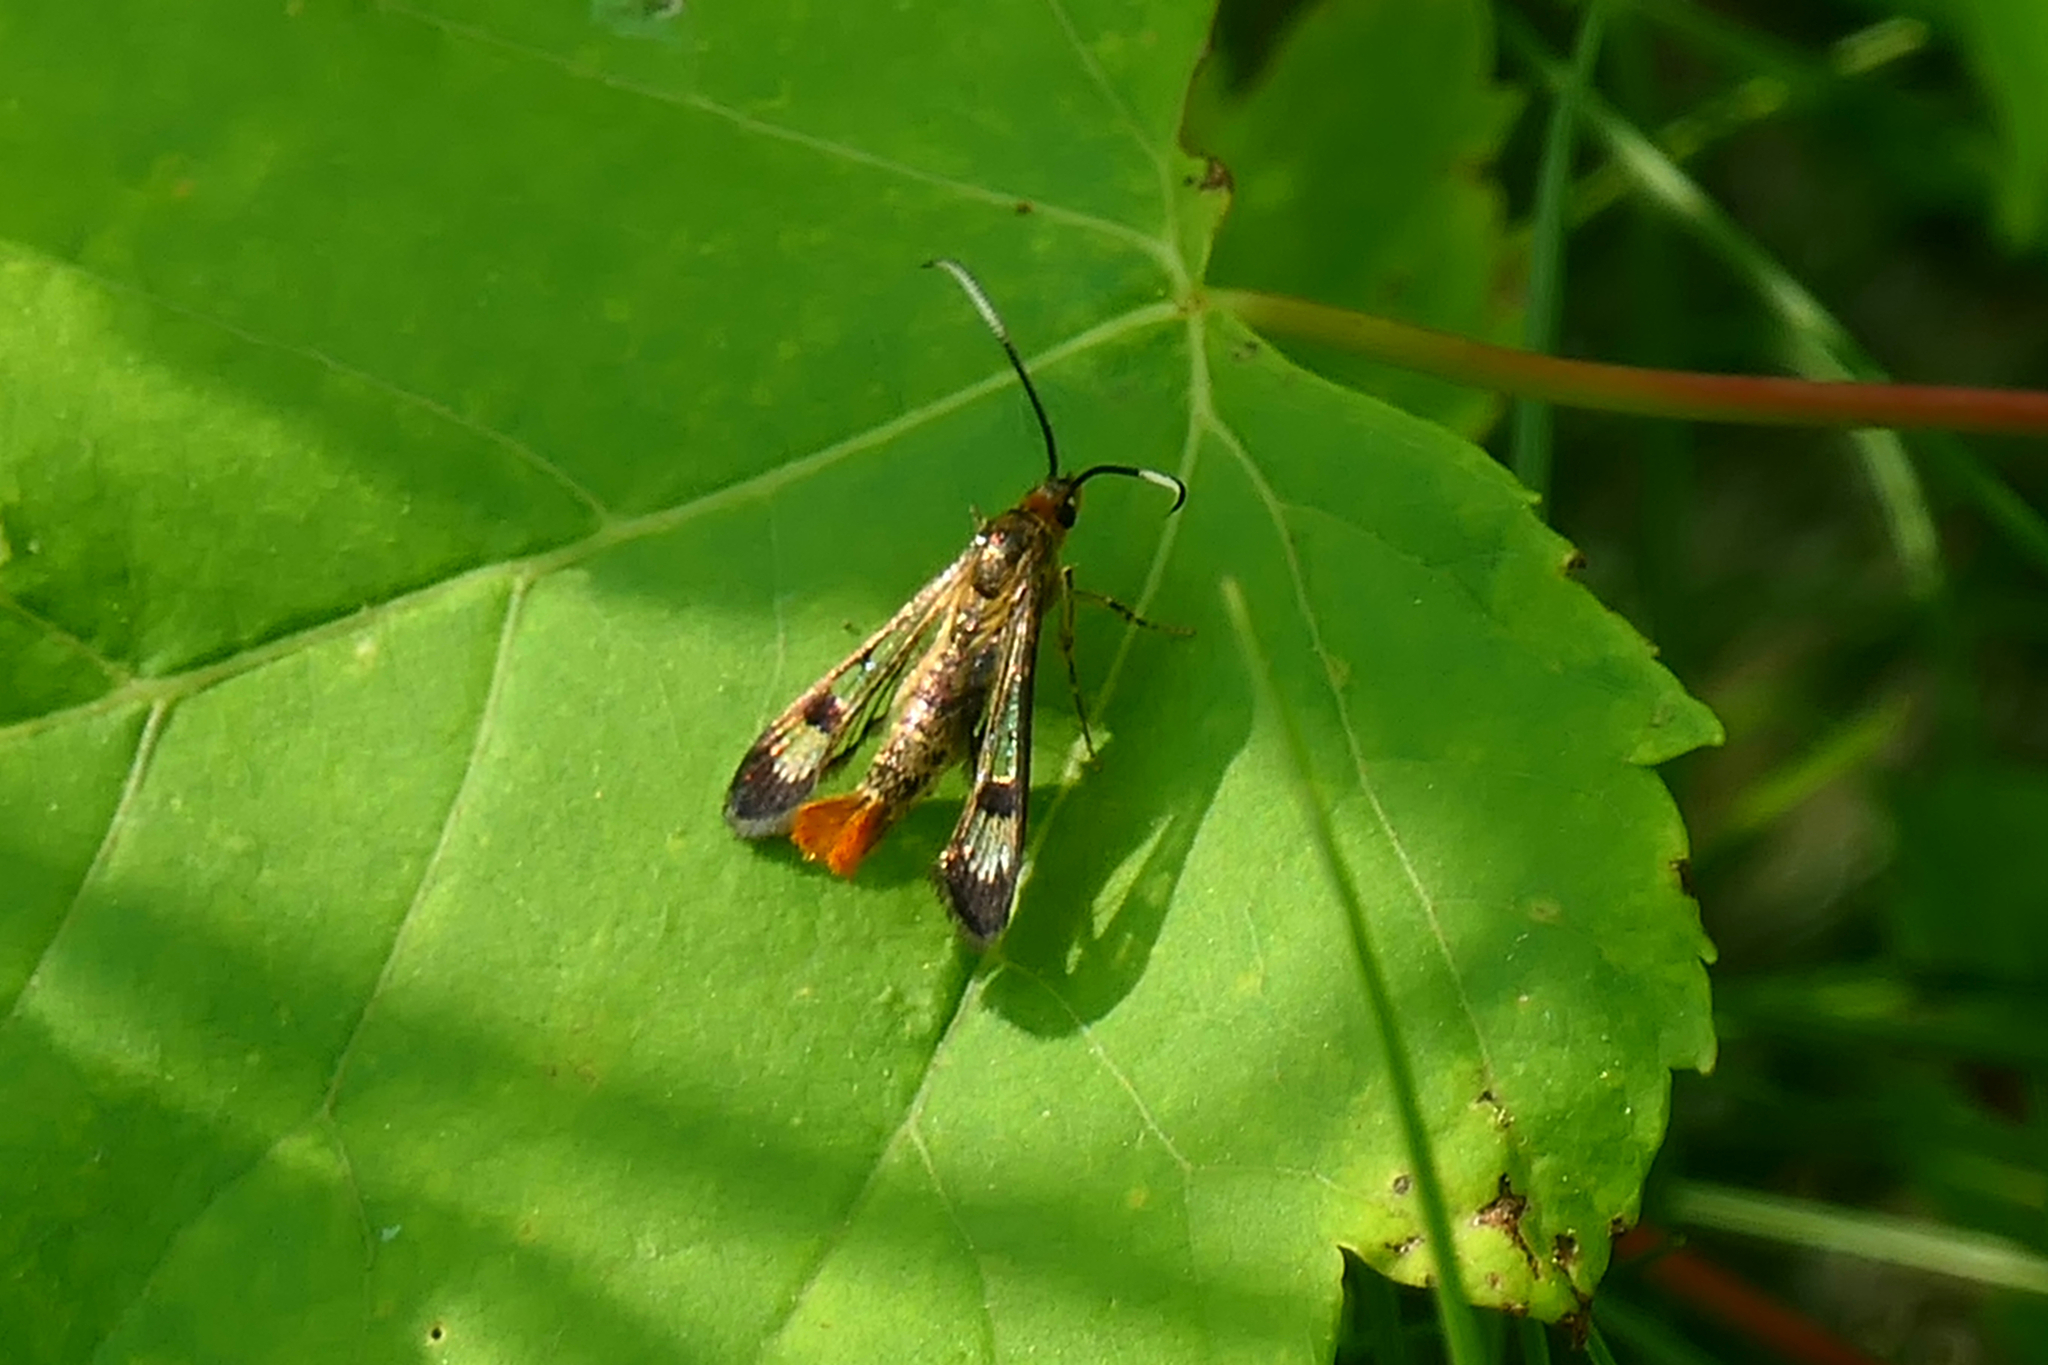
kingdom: Animalia
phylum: Arthropoda
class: Insecta
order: Lepidoptera
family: Sesiidae
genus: Carmenta
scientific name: Carmenta corni
